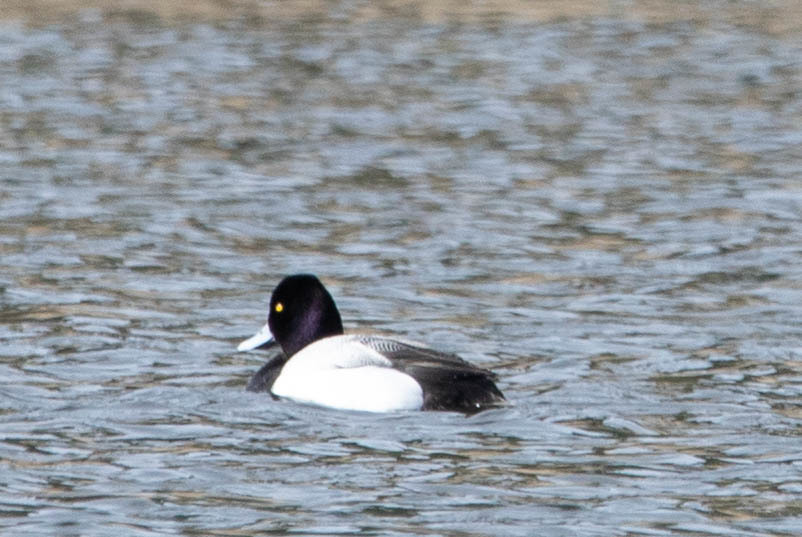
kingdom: Animalia
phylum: Chordata
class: Aves
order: Anseriformes
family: Anatidae
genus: Aythya
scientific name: Aythya affinis
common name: Lesser scaup
